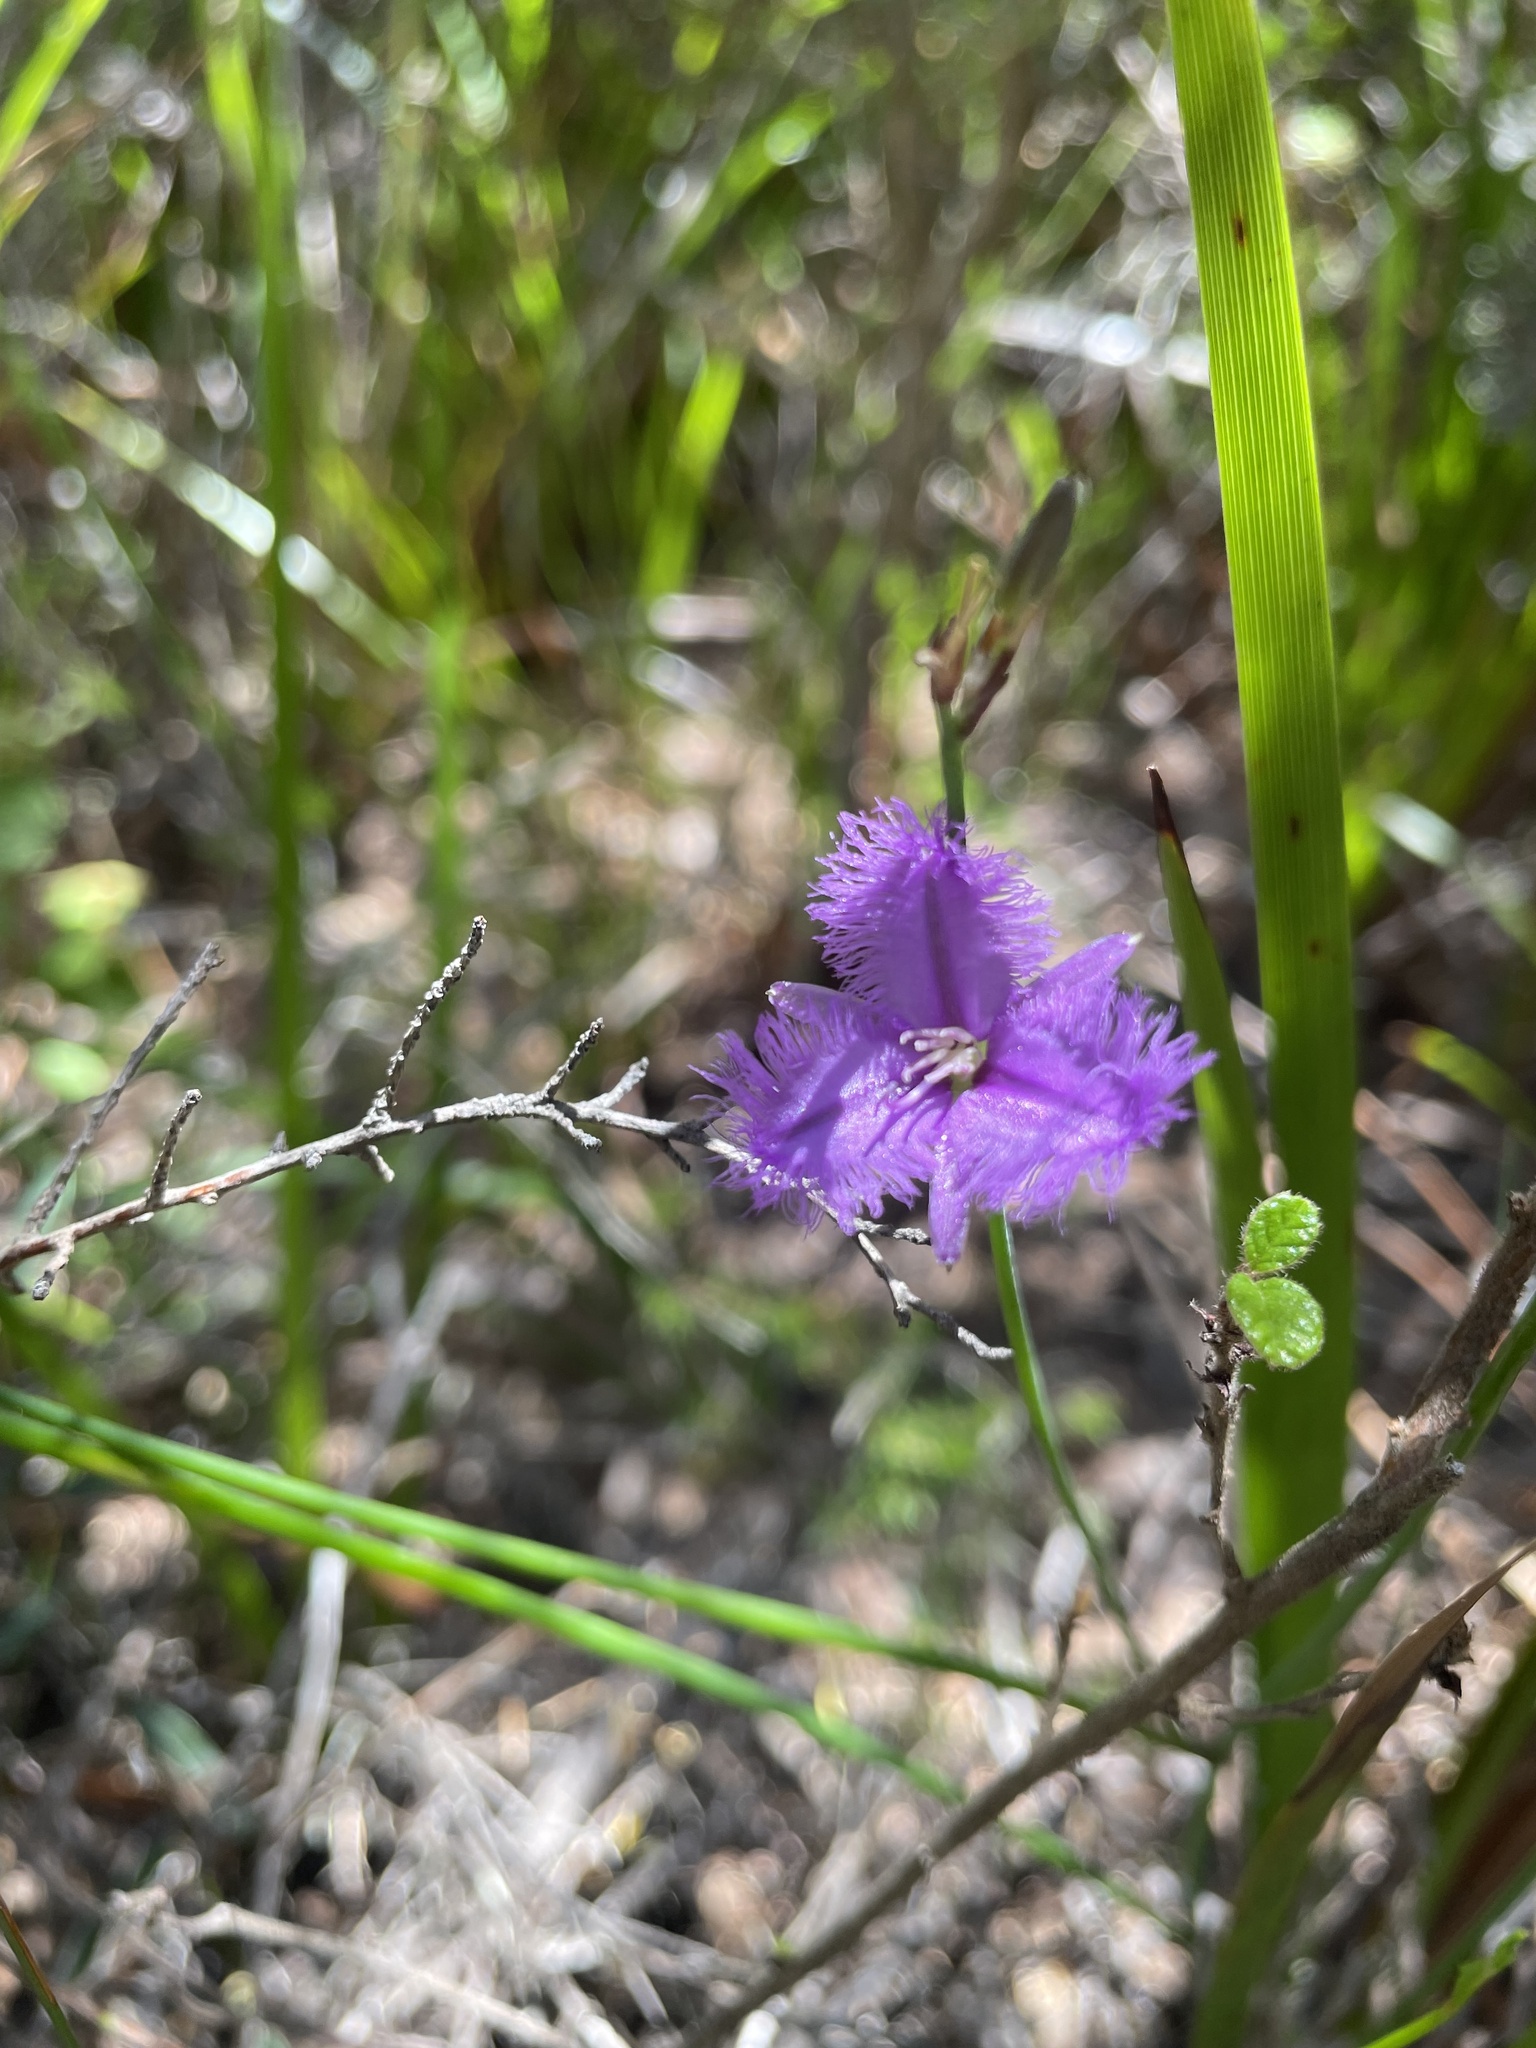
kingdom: Plantae
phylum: Tracheophyta
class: Liliopsida
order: Asparagales
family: Asparagaceae
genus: Thysanotus
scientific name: Thysanotus tuberosus
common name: Common fringed-lily
